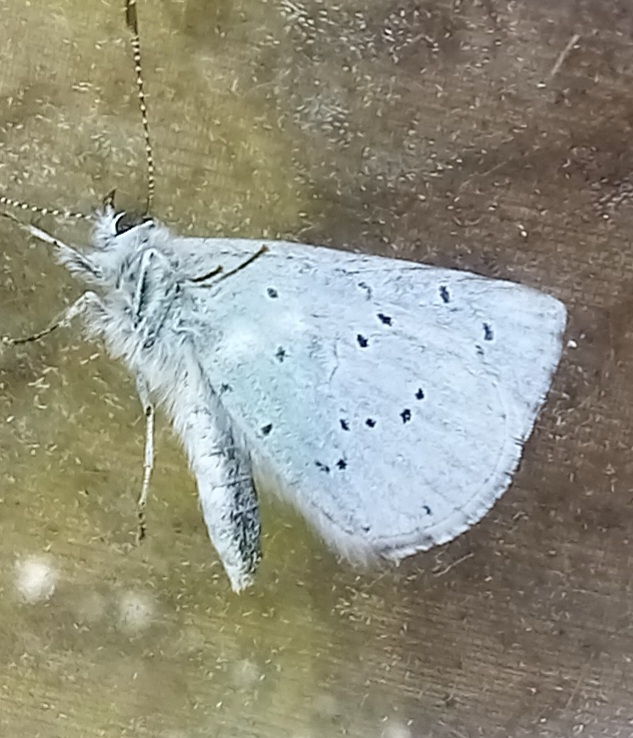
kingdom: Animalia
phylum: Arthropoda
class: Insecta
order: Lepidoptera
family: Lycaenidae
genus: Celastrina
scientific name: Celastrina argiolus
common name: Holly blue
